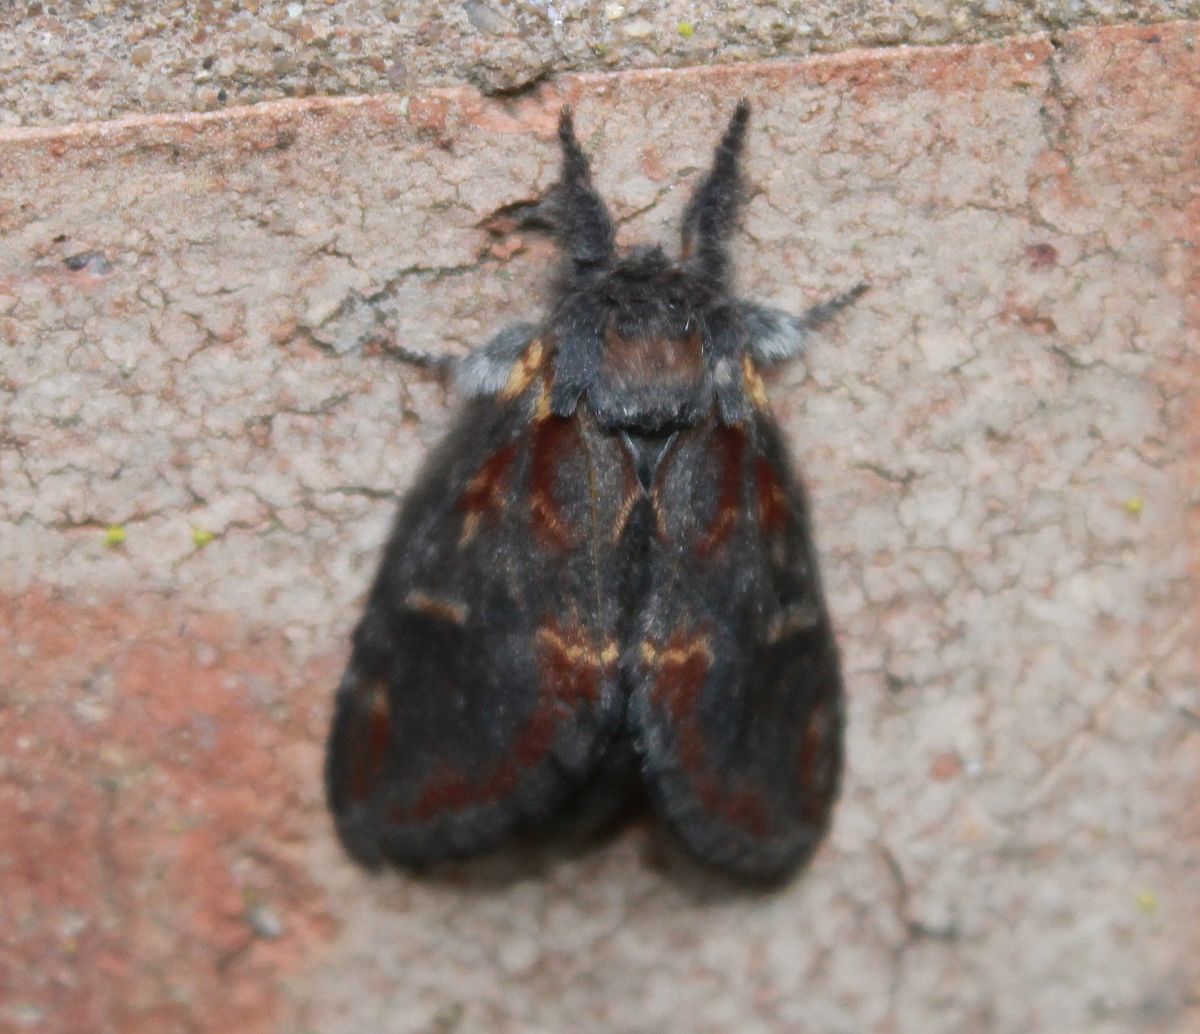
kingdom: Animalia
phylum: Arthropoda
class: Insecta
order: Lepidoptera
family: Notodontidae
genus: Notodonta
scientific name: Notodonta dromedarius
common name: Iron prominent
